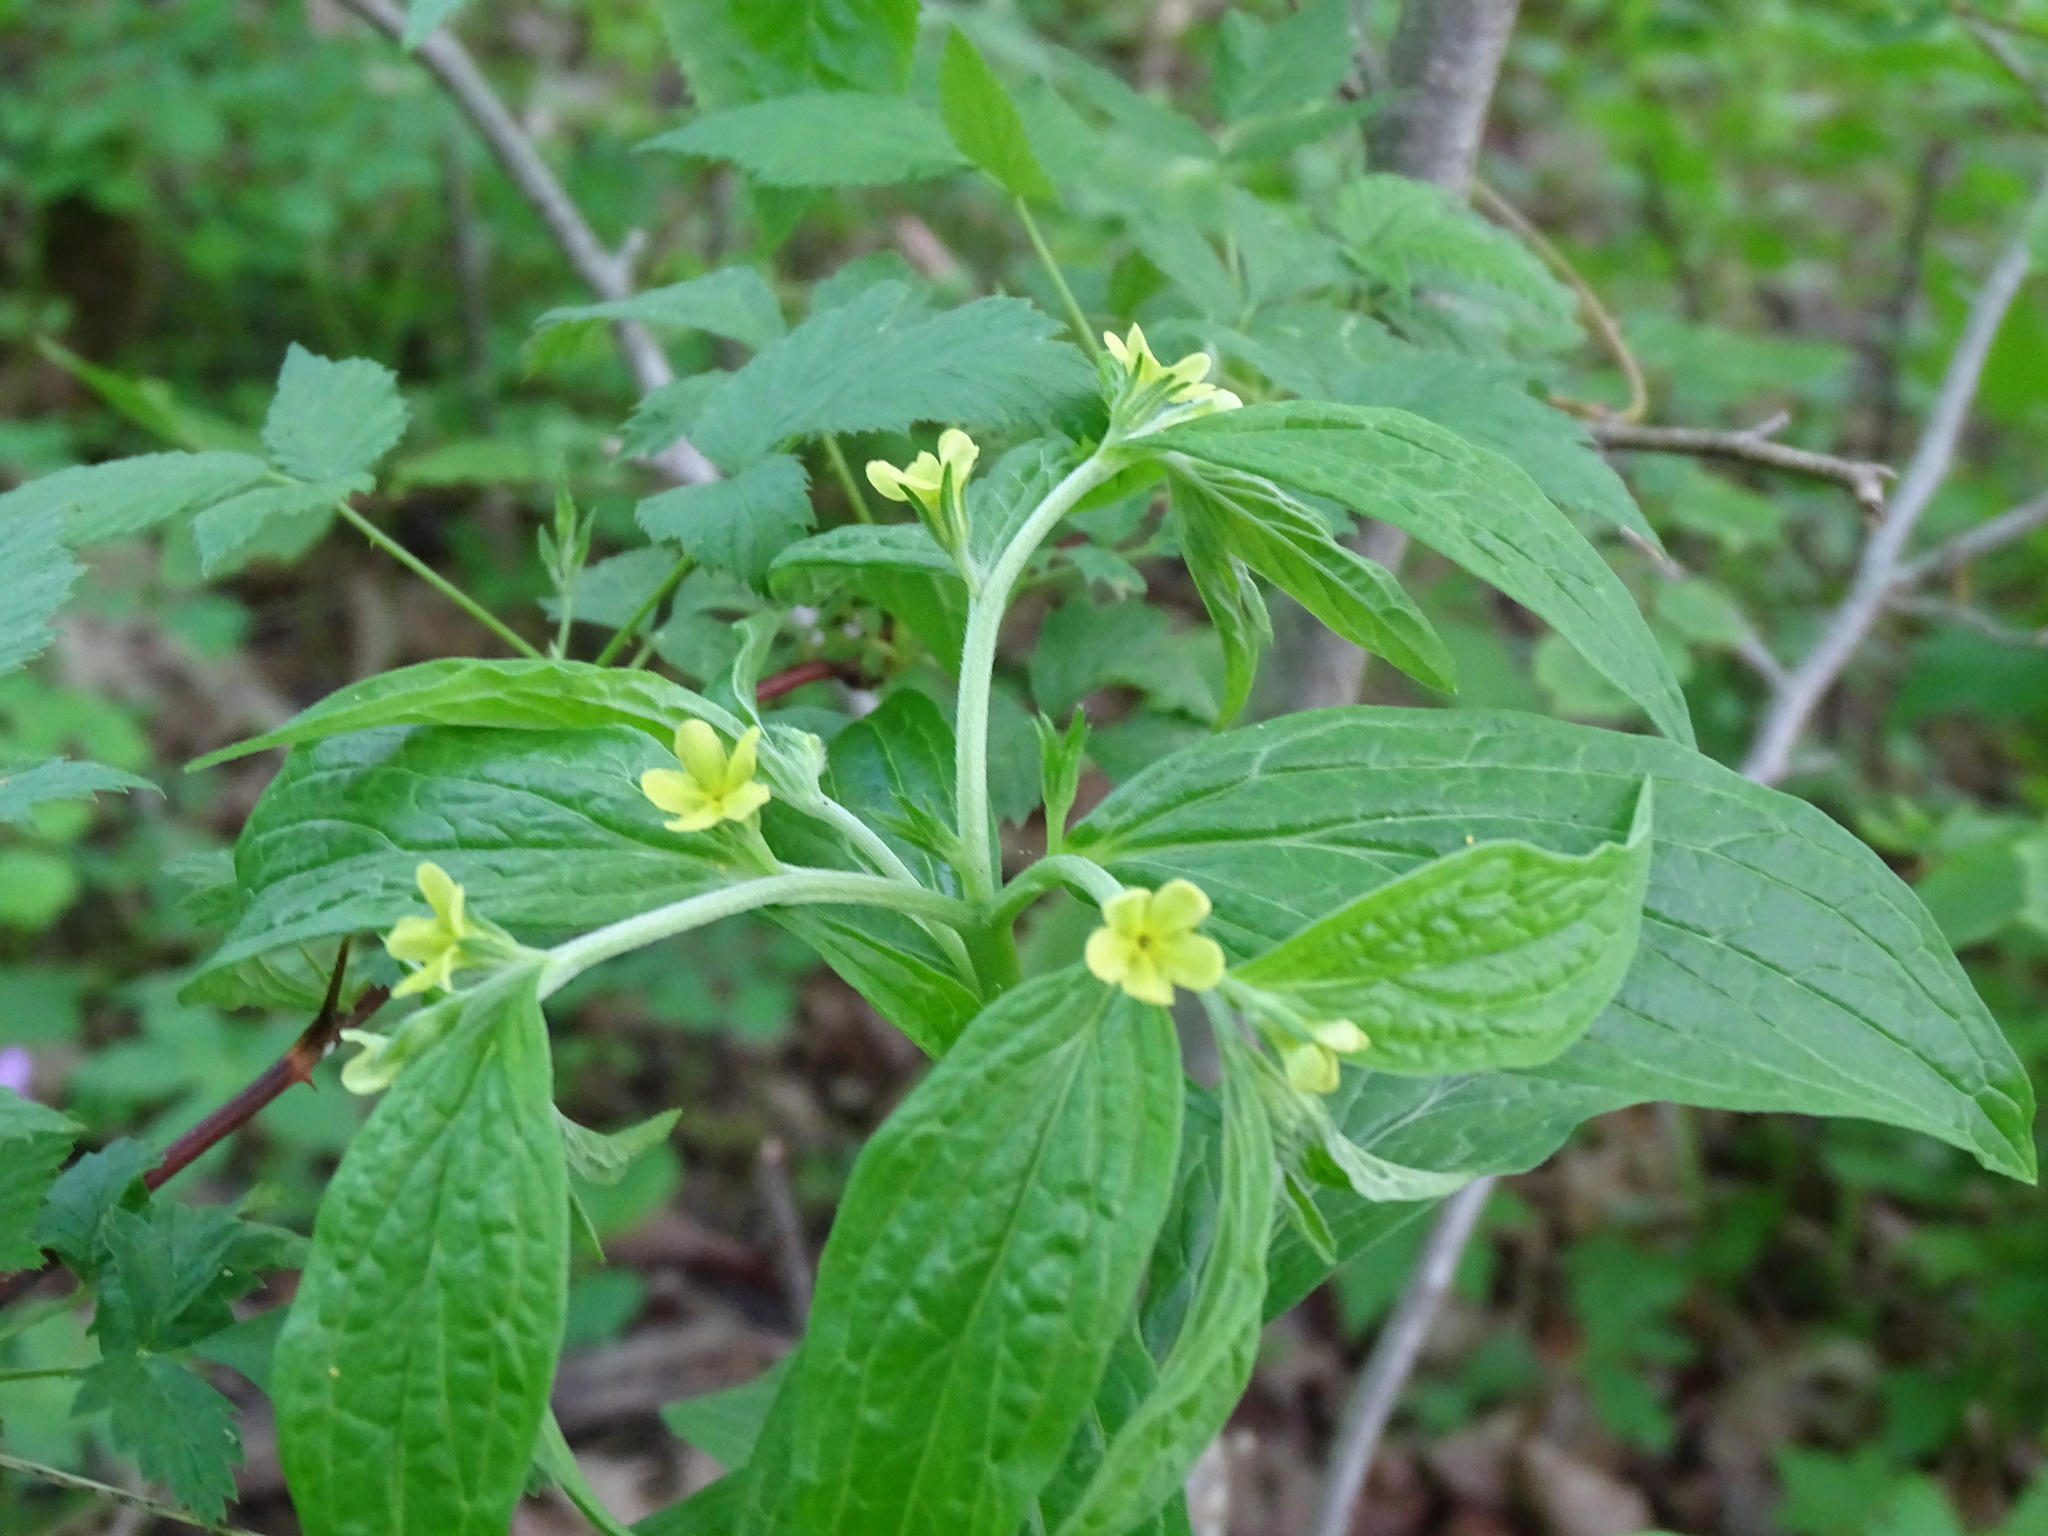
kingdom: Plantae
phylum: Tracheophyta
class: Magnoliopsida
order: Boraginales
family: Boraginaceae
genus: Lithospermum
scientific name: Lithospermum latifolium
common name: American gromwell
